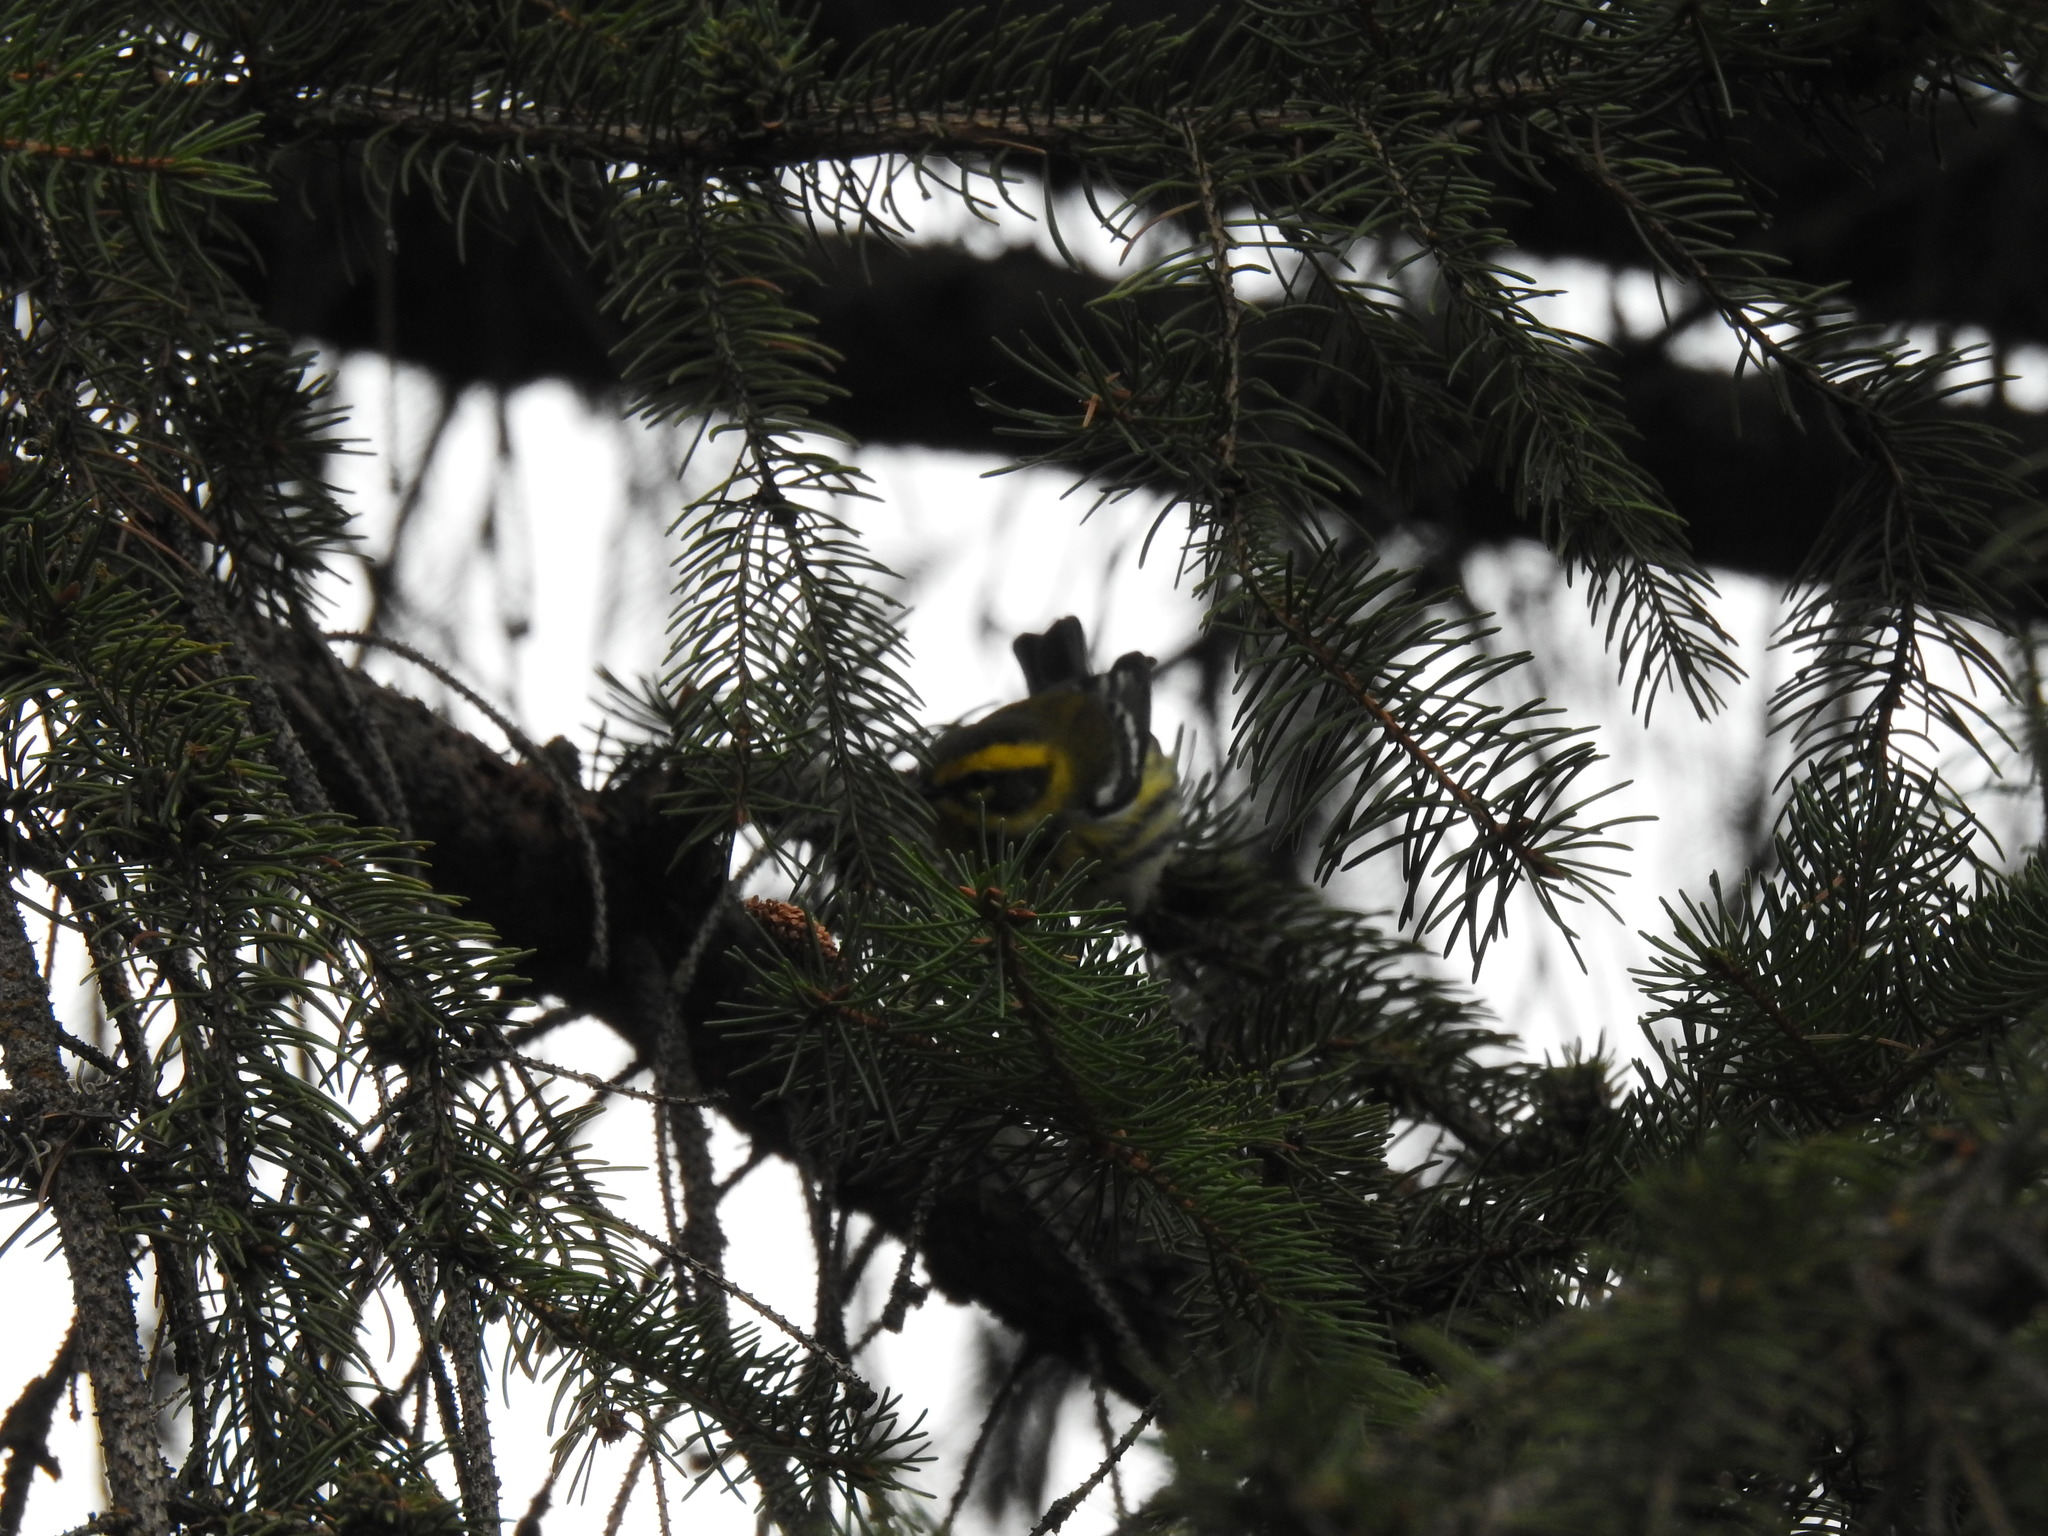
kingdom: Animalia
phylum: Chordata
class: Aves
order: Passeriformes
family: Parulidae
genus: Setophaga
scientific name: Setophaga townsendi
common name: Townsend's warbler
